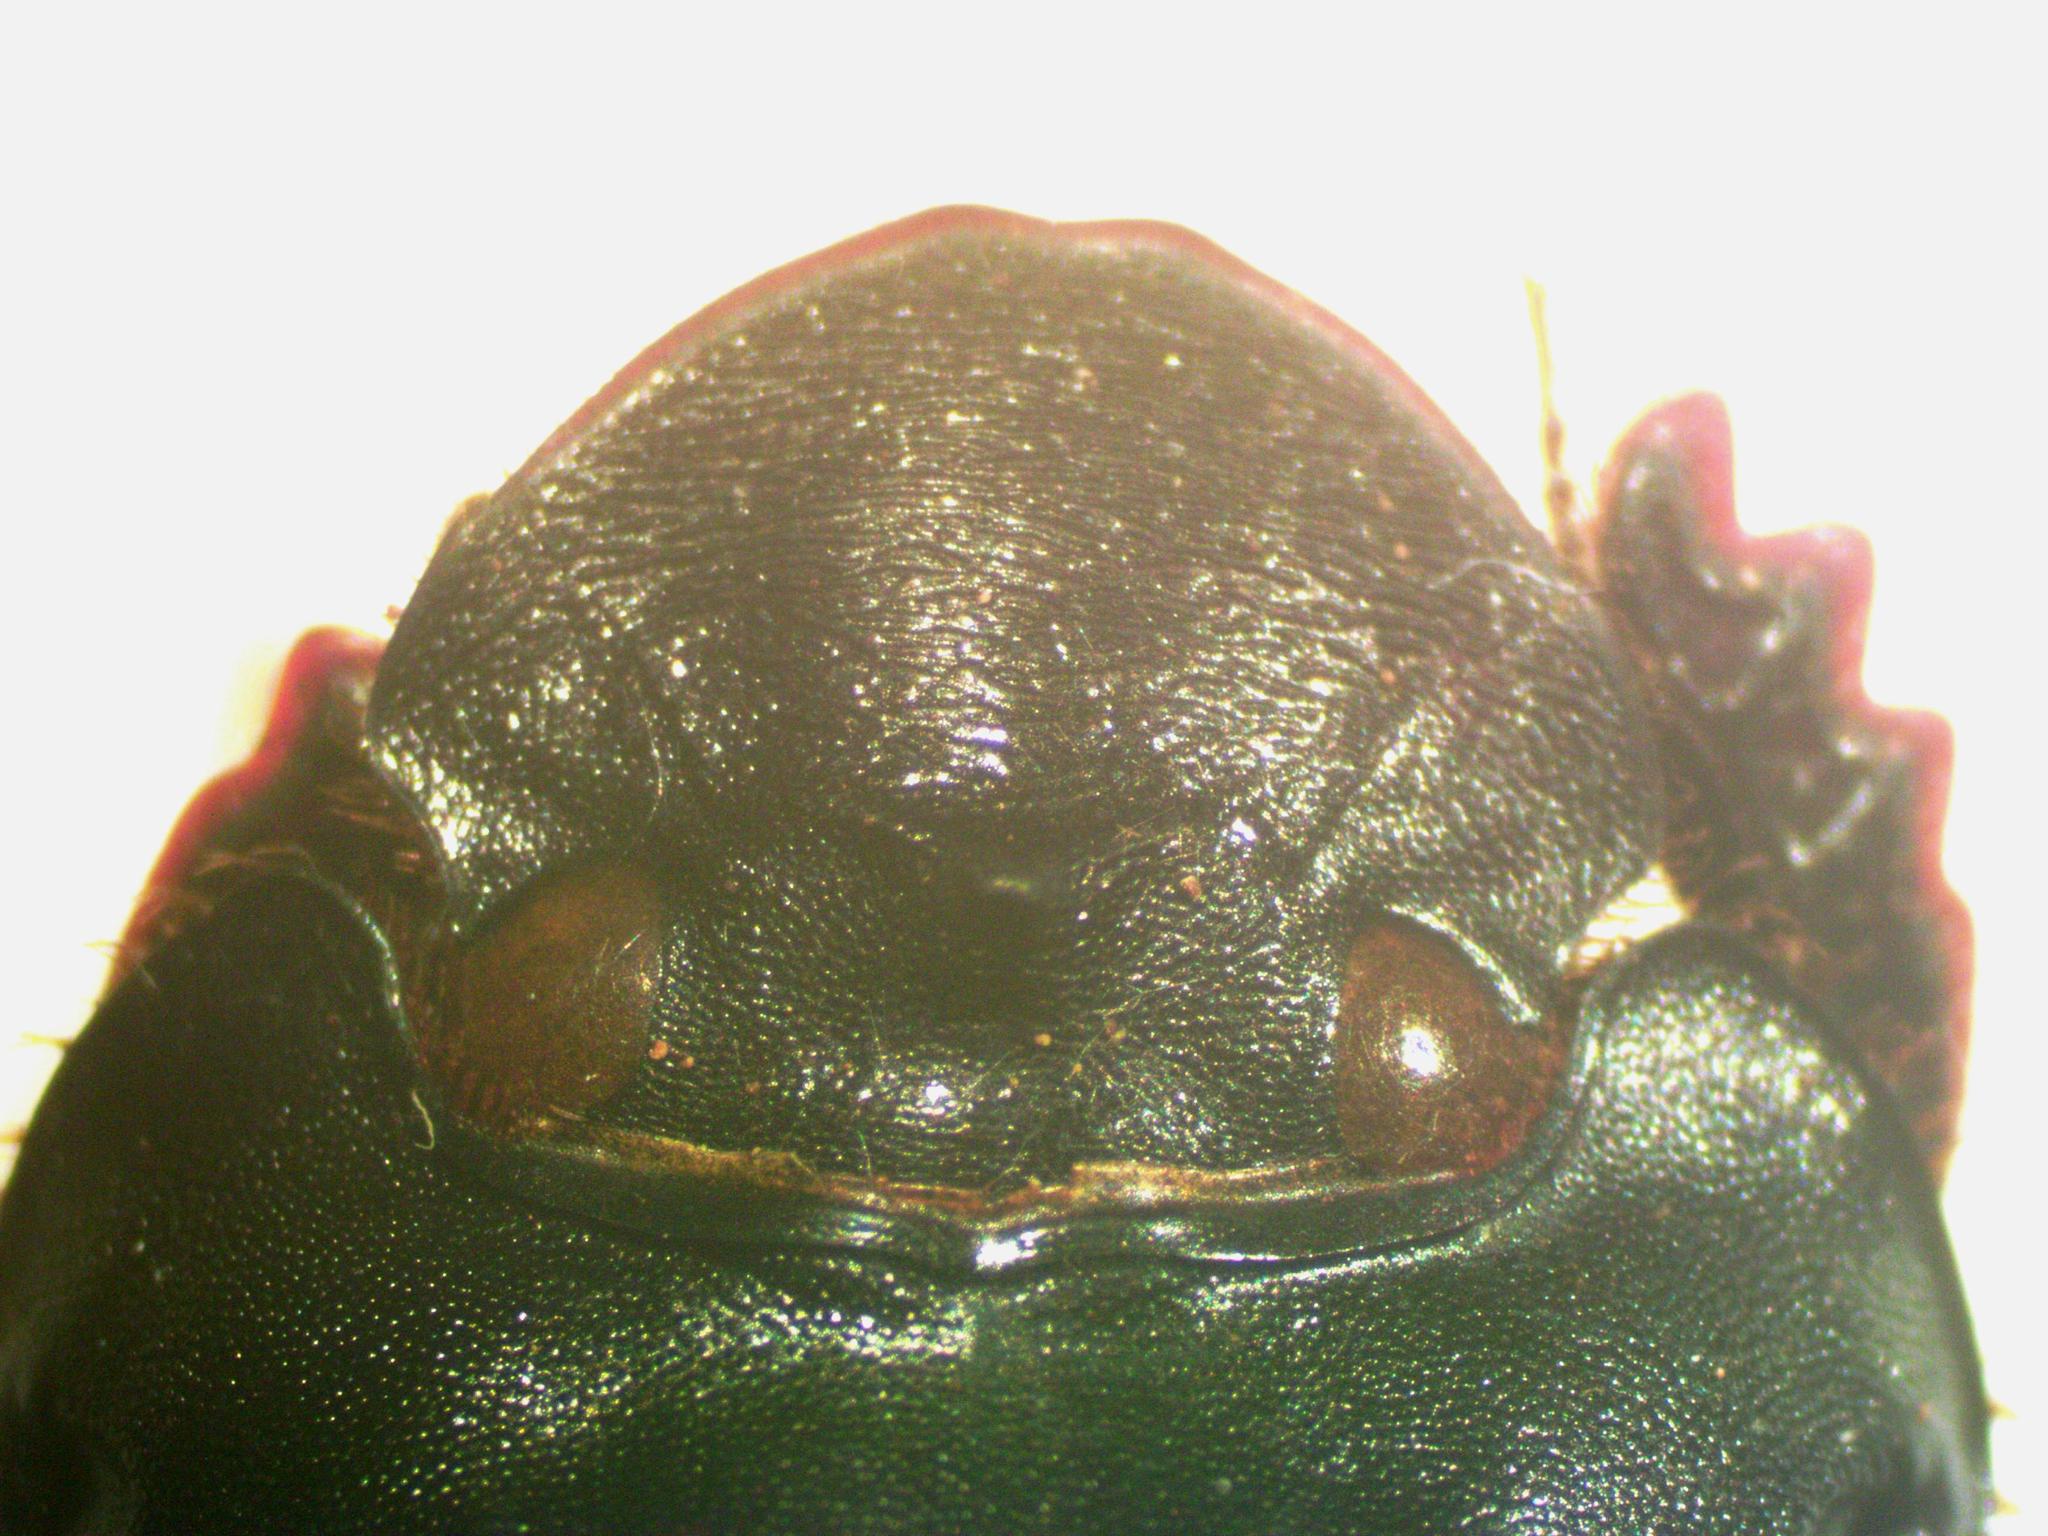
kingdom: Animalia
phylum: Arthropoda
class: Insecta
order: Coleoptera
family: Scarabaeidae
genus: Dichotomius
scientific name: Dichotomius satanas
